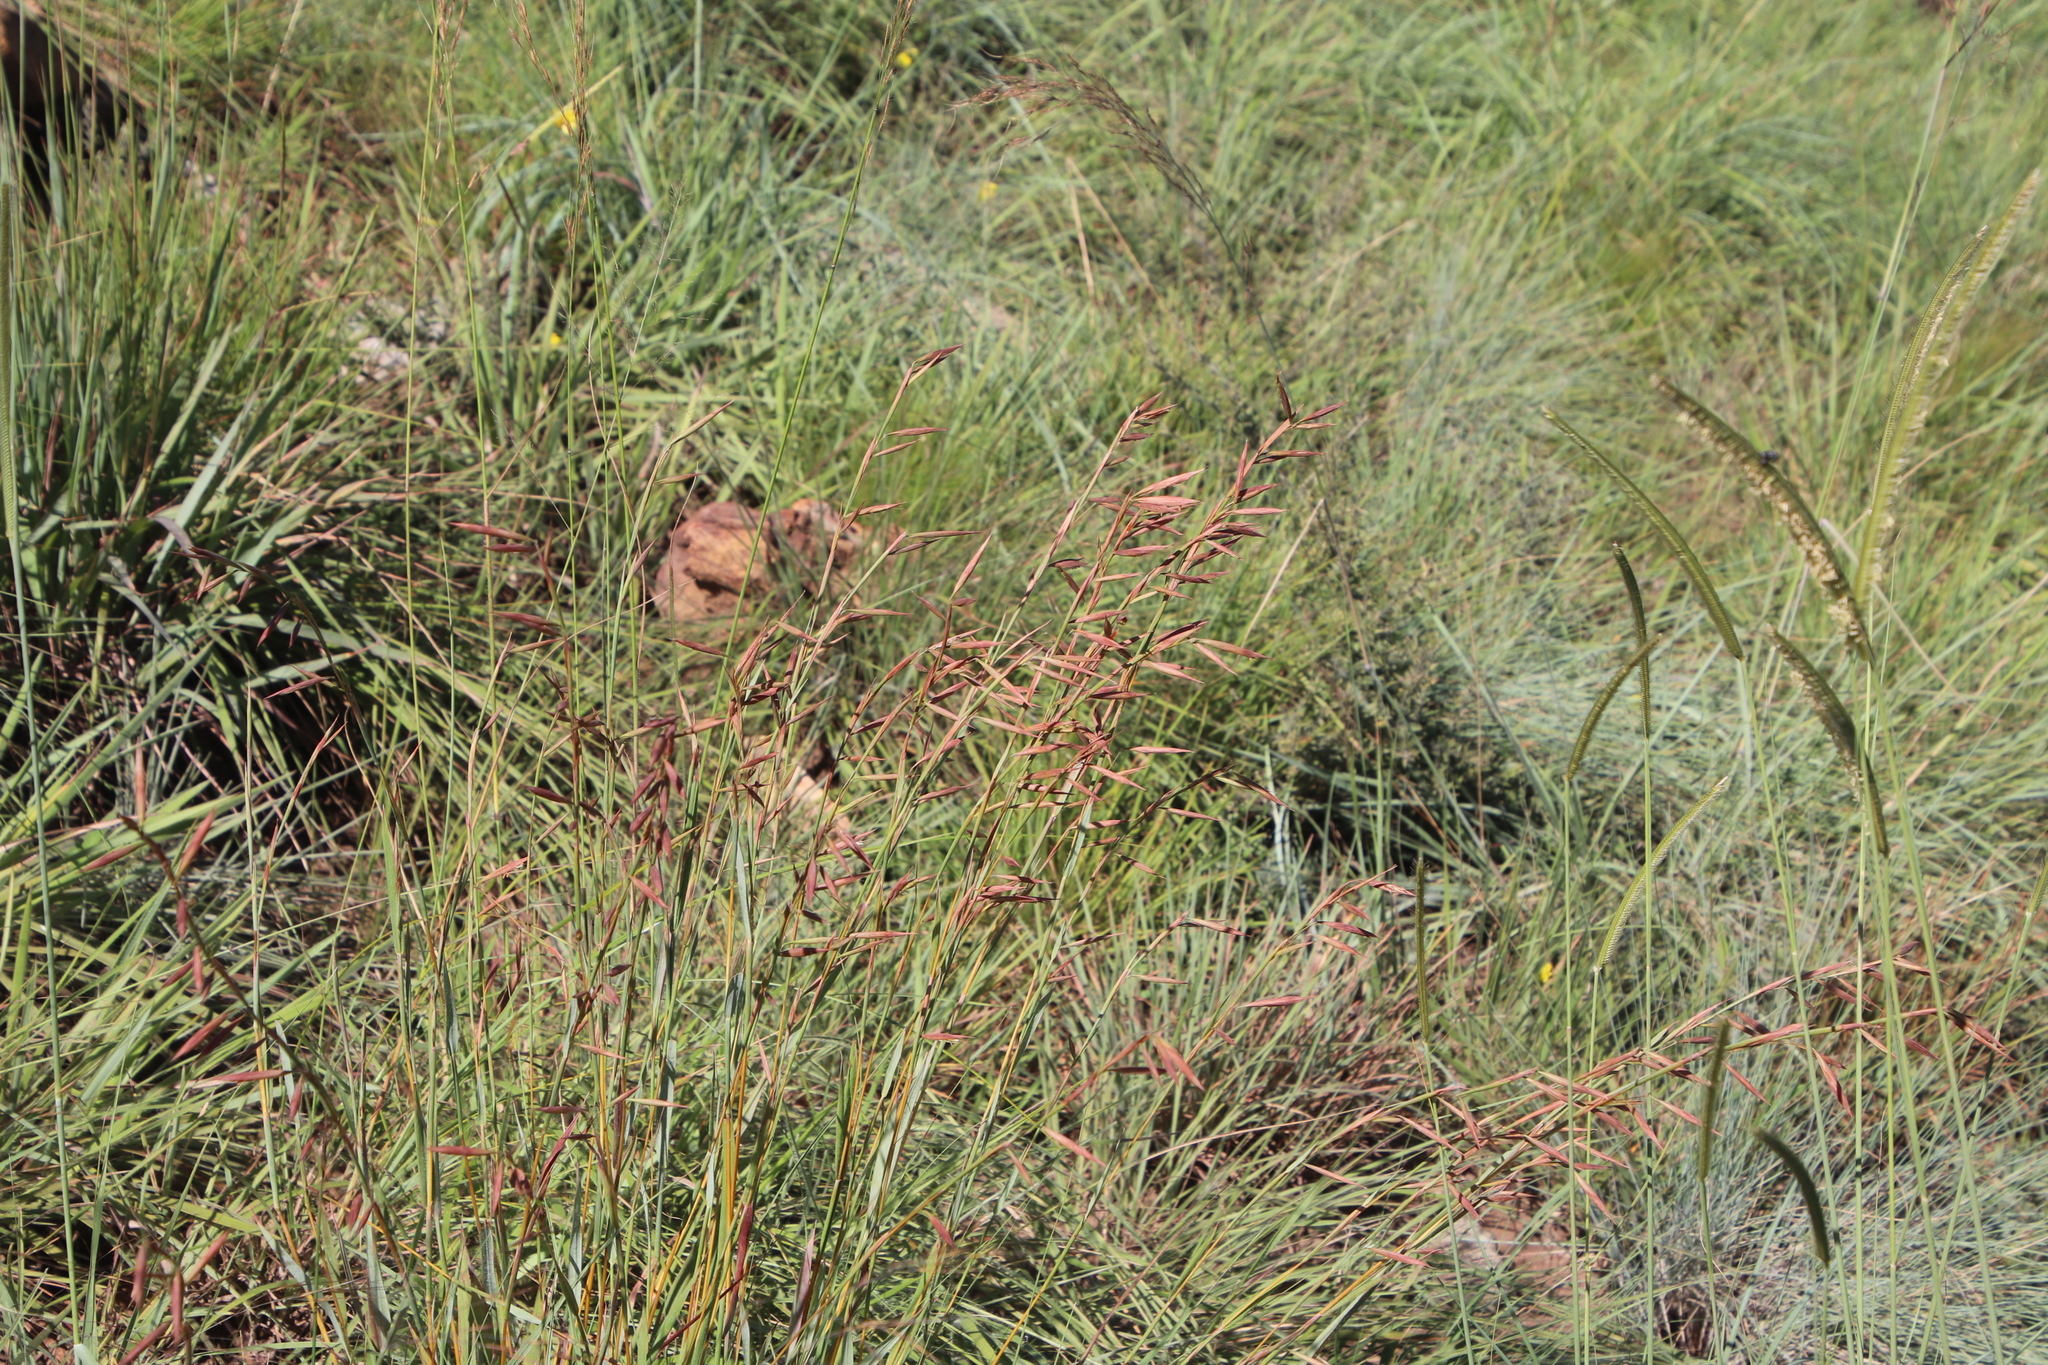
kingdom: Plantae
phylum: Tracheophyta
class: Liliopsida
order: Poales
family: Poaceae
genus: Monocymbium
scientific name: Monocymbium ceresiiforme
